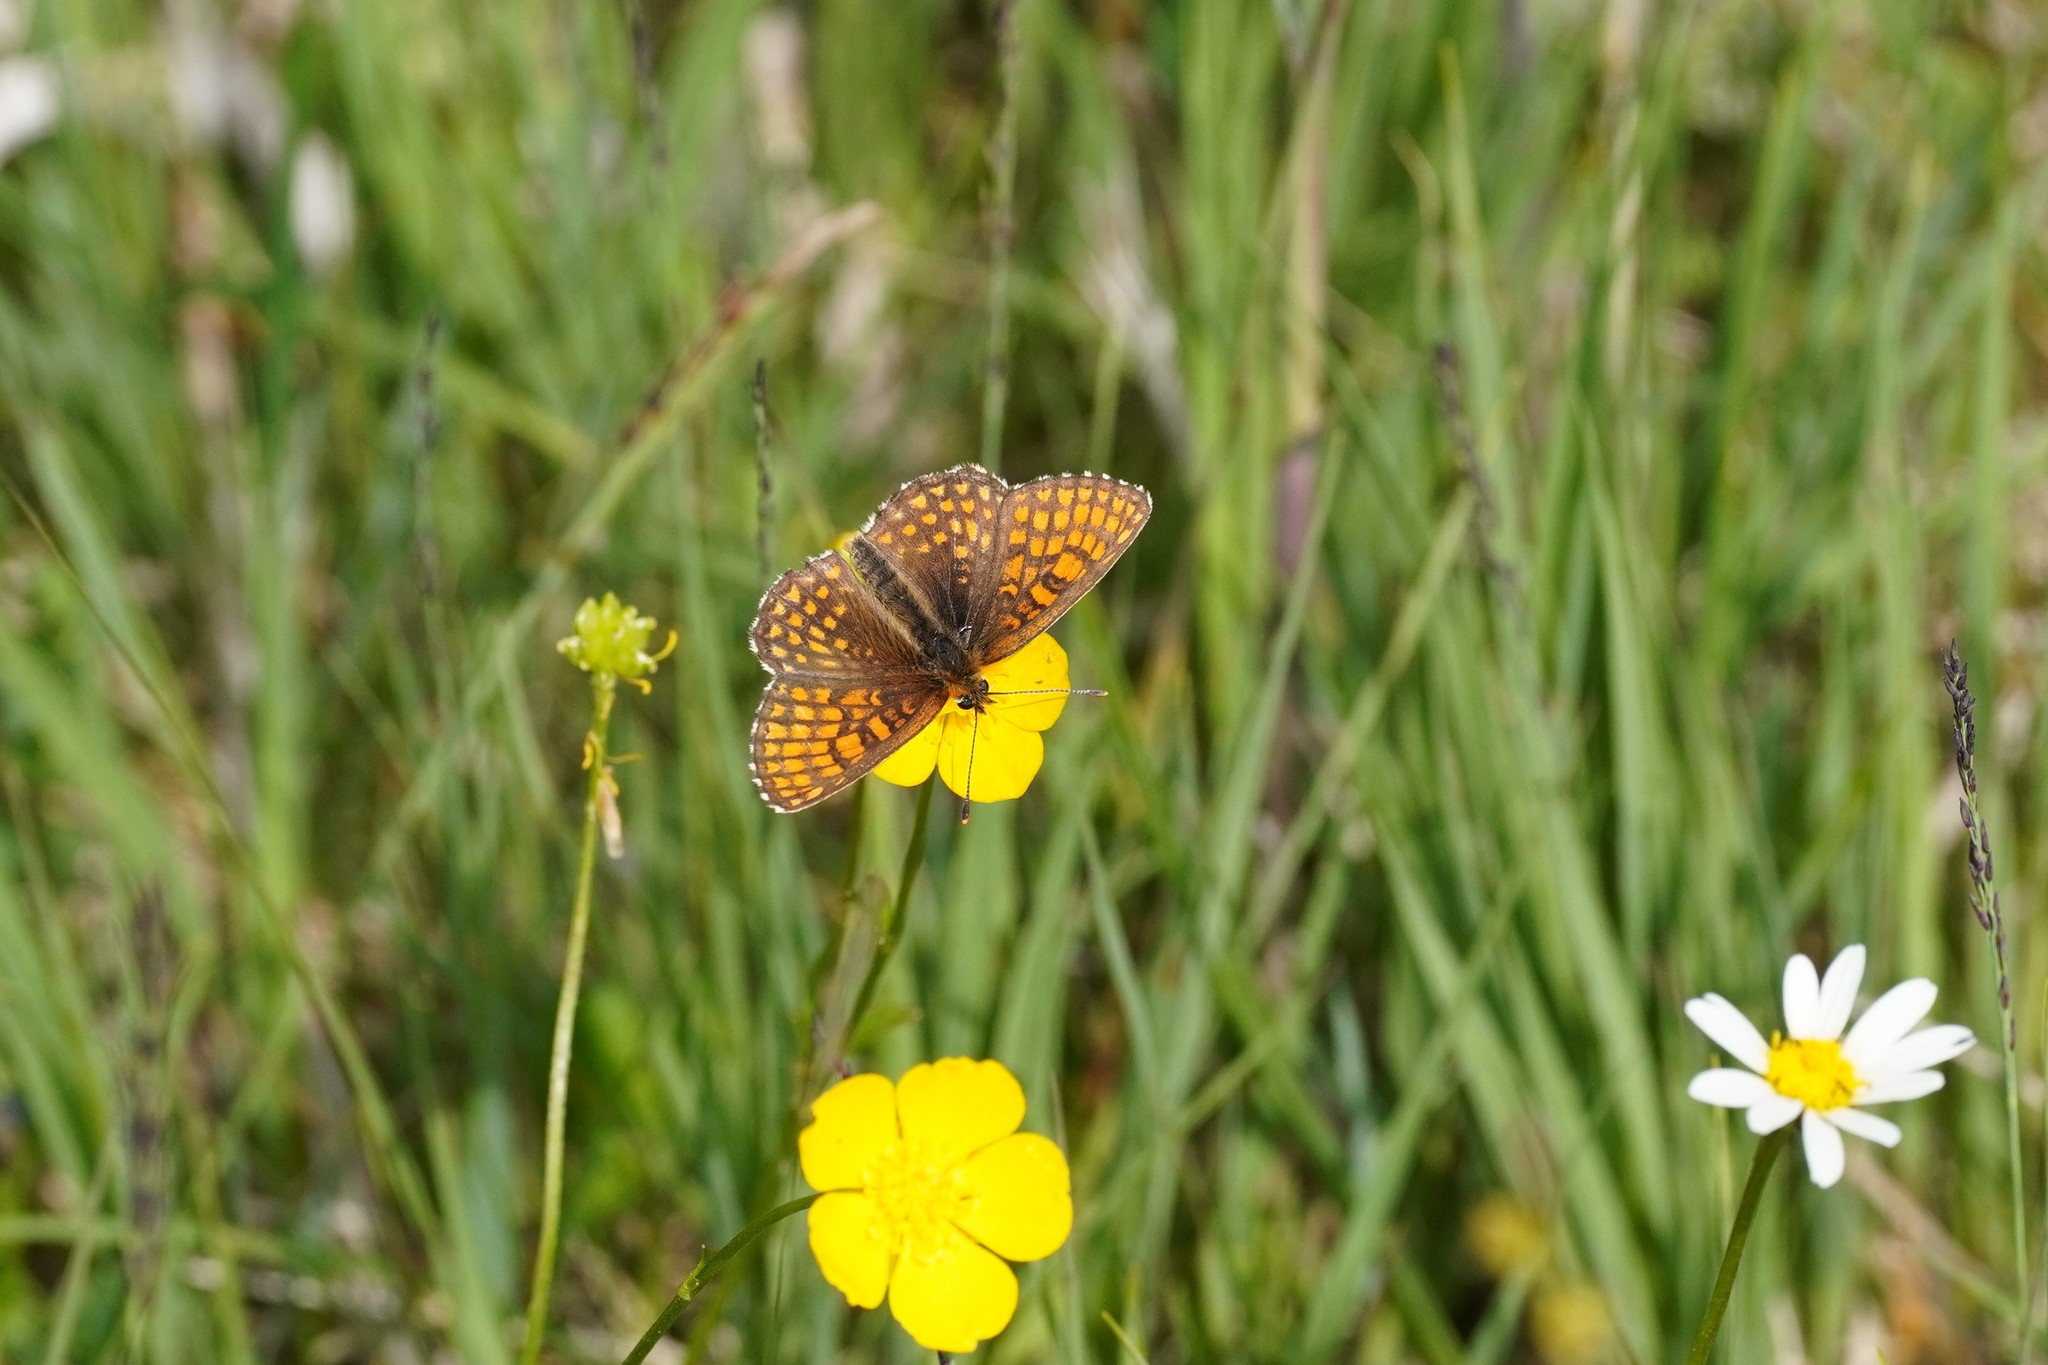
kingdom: Animalia
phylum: Arthropoda
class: Insecta
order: Lepidoptera
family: Nymphalidae
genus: Melitaea
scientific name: Melitaea athalia
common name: Heath fritillary
